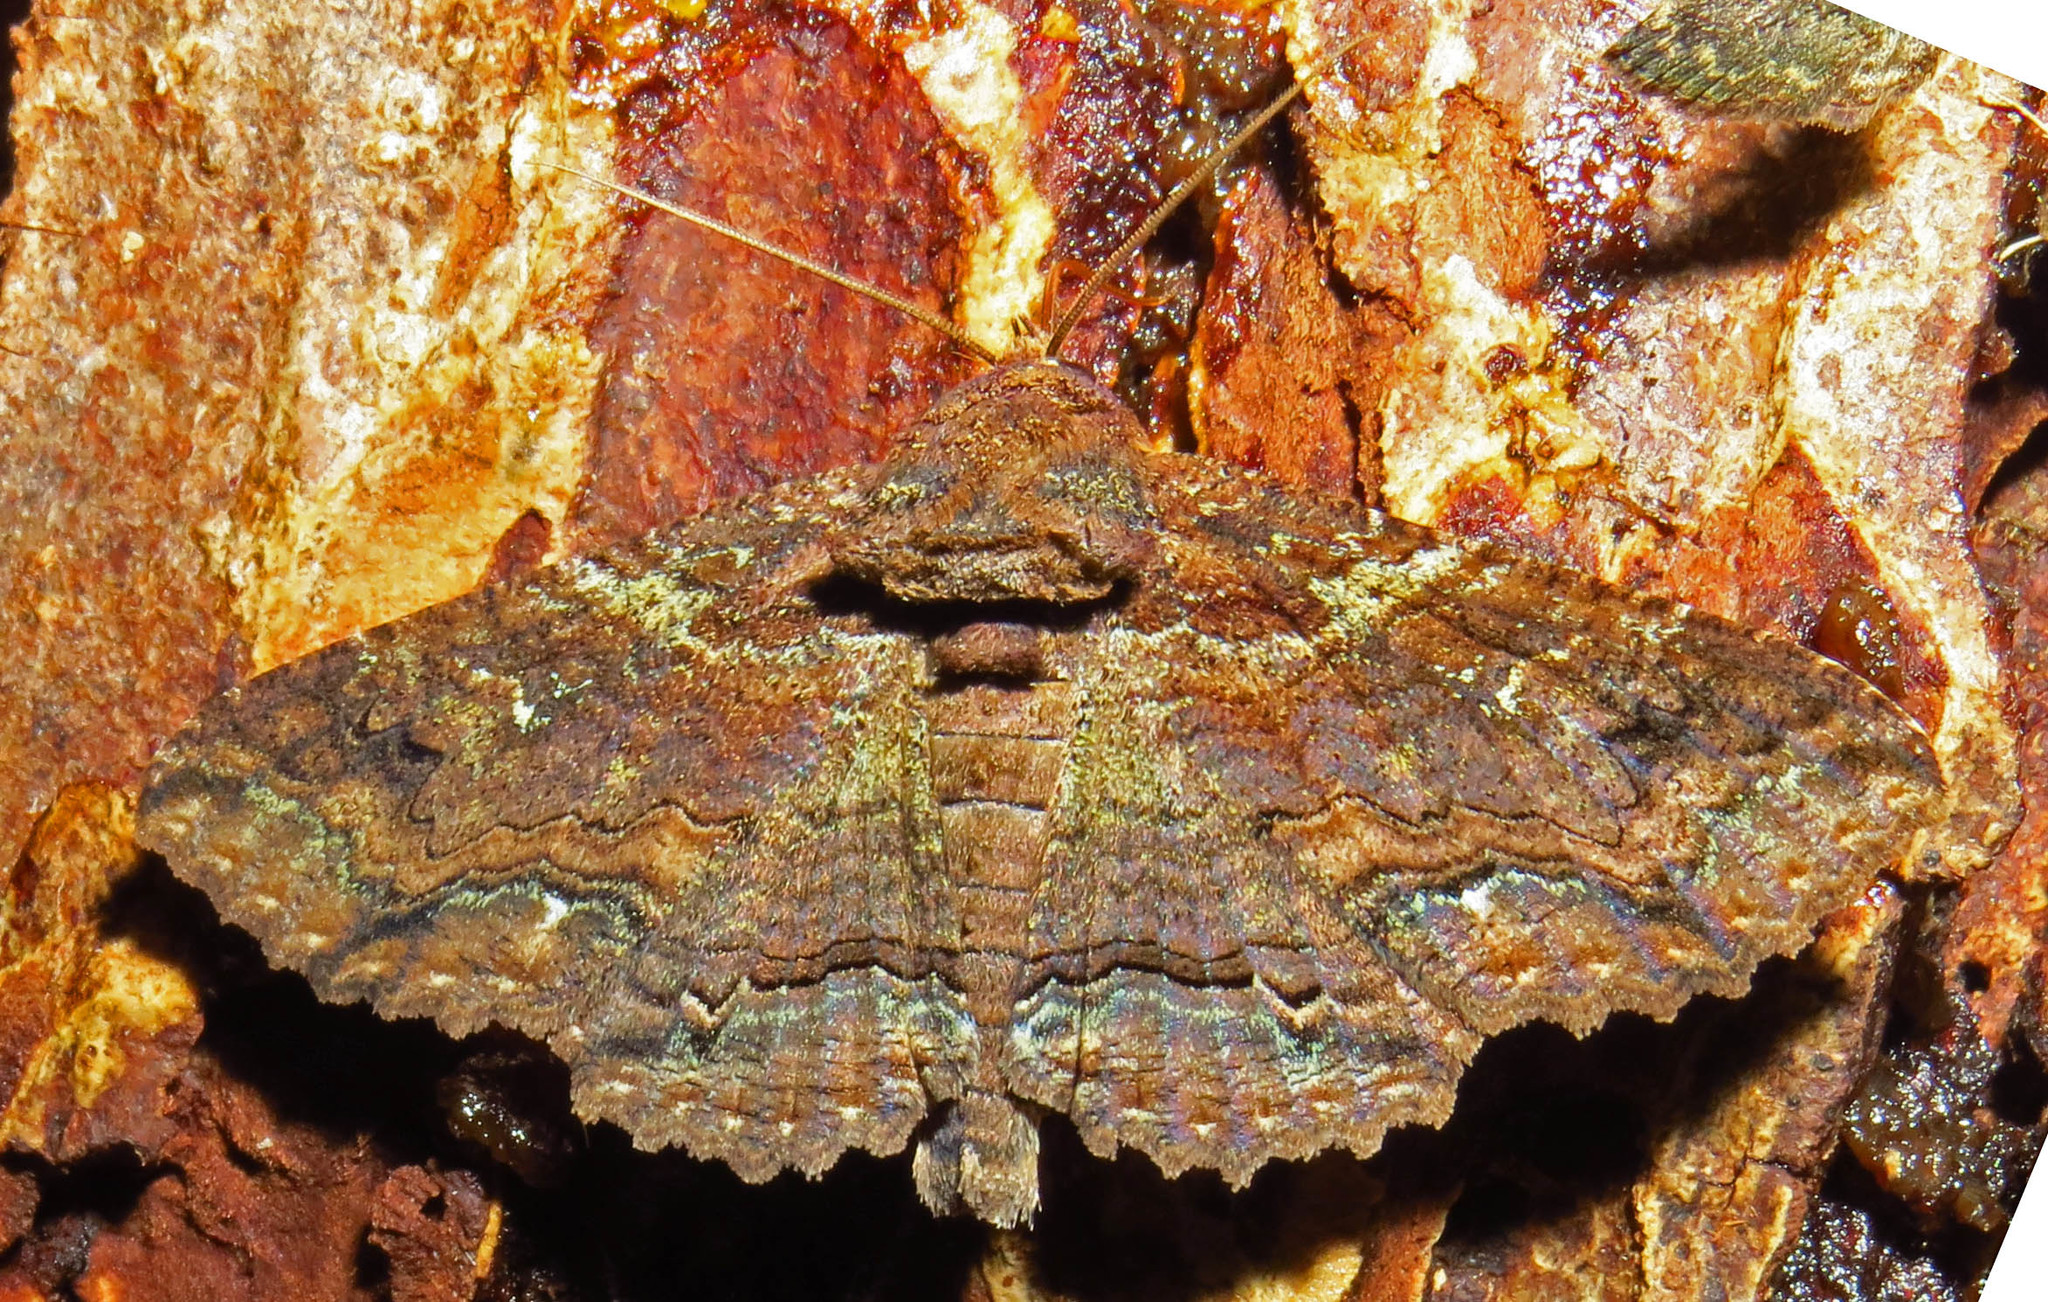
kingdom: Animalia
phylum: Arthropoda
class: Insecta
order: Lepidoptera
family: Erebidae
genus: Zale
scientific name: Zale lunata
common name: Lunate zale moth
